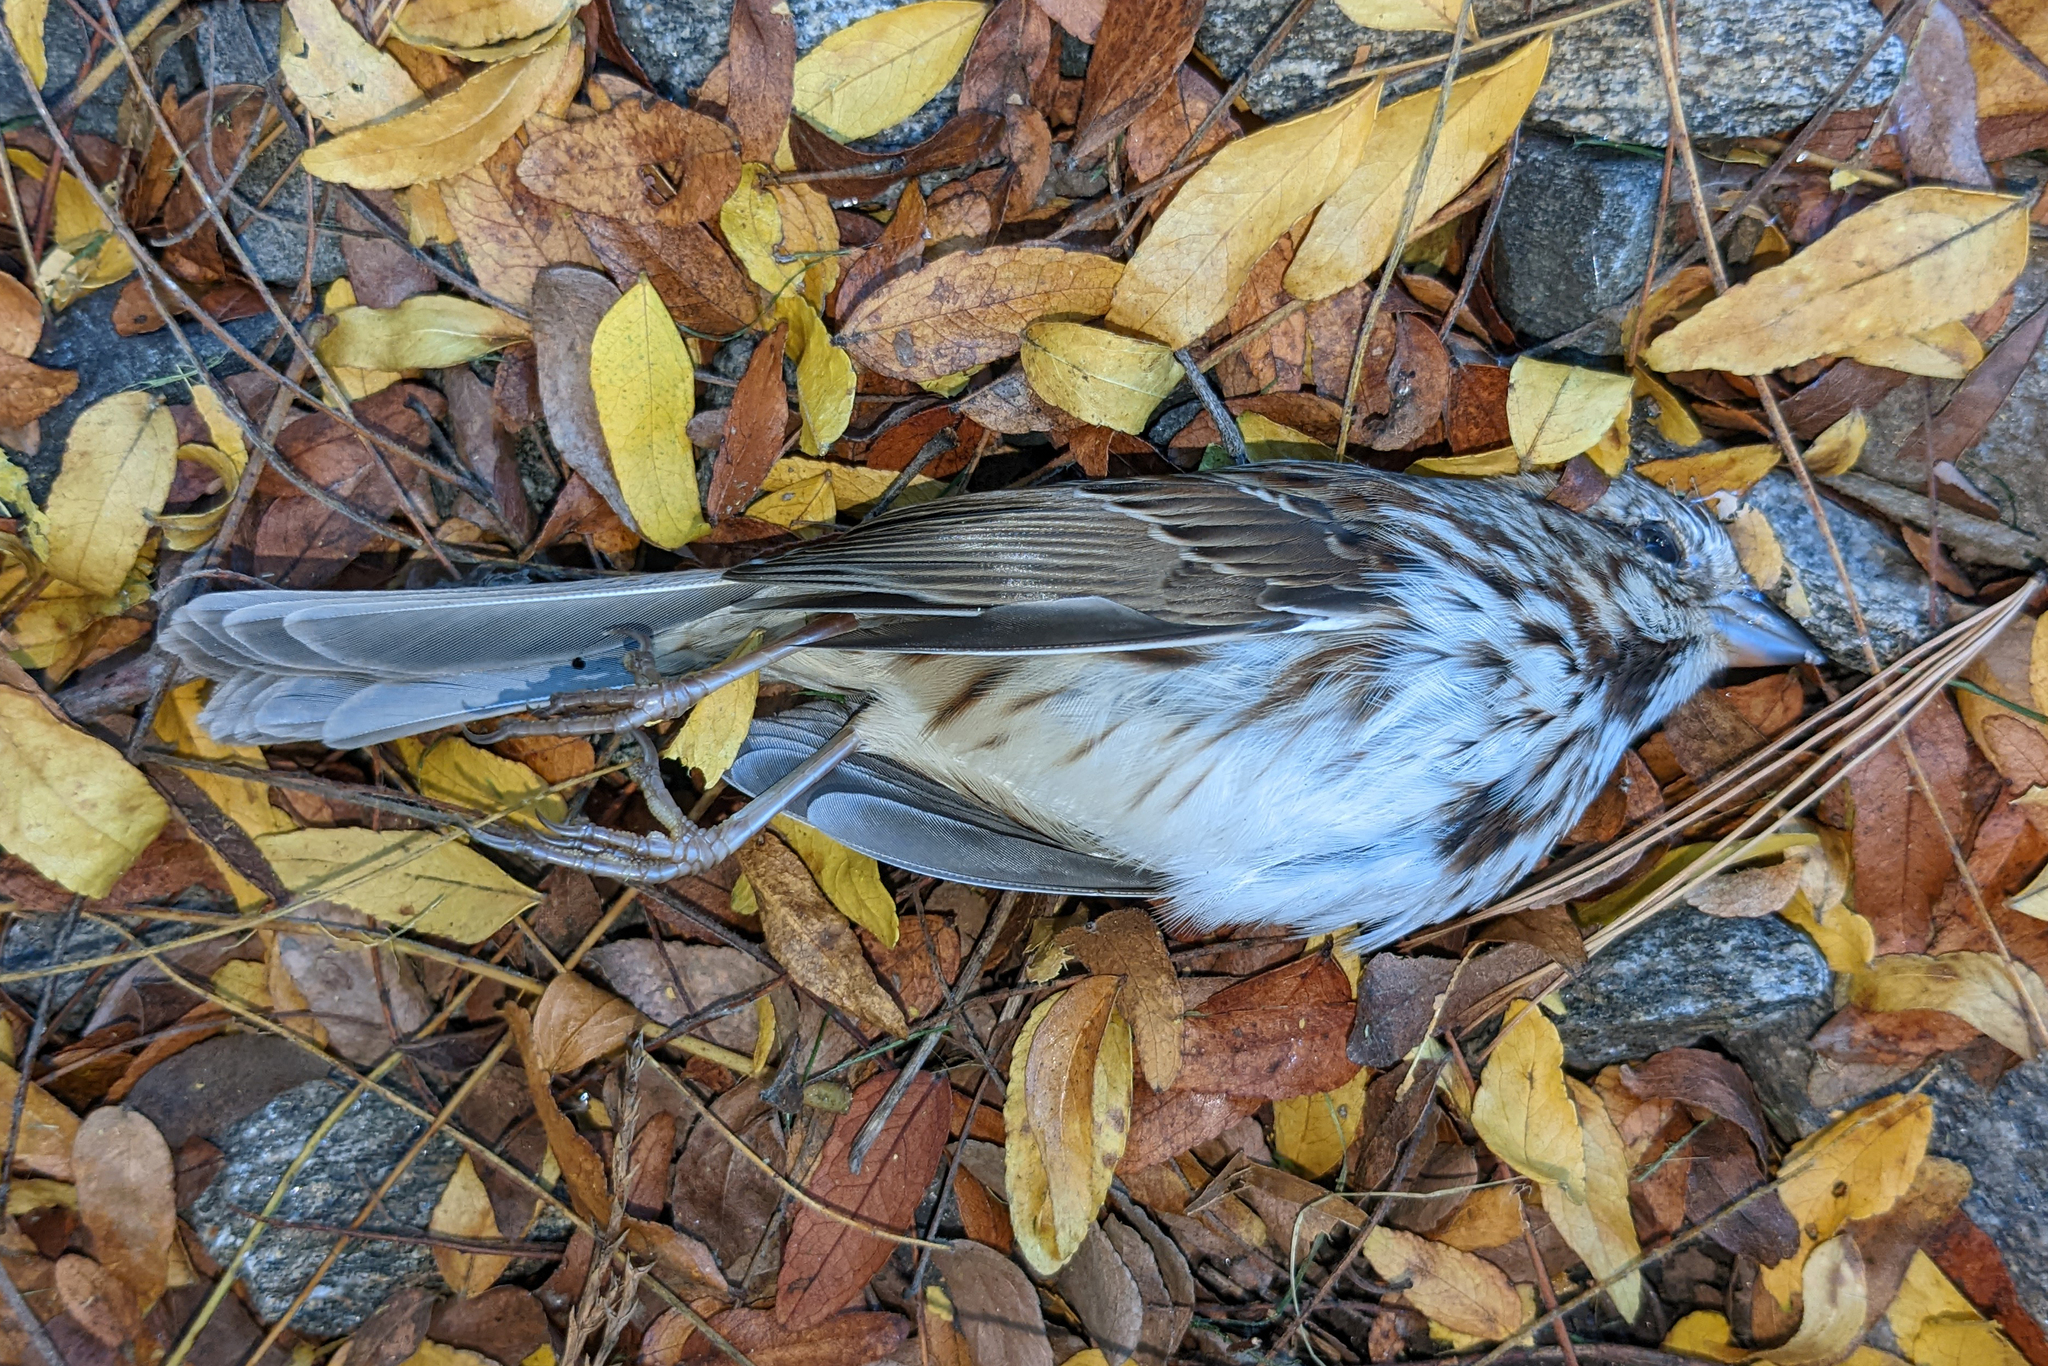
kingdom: Animalia
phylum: Chordata
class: Aves
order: Passeriformes
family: Passerellidae
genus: Melospiza
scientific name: Melospiza melodia
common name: Song sparrow
